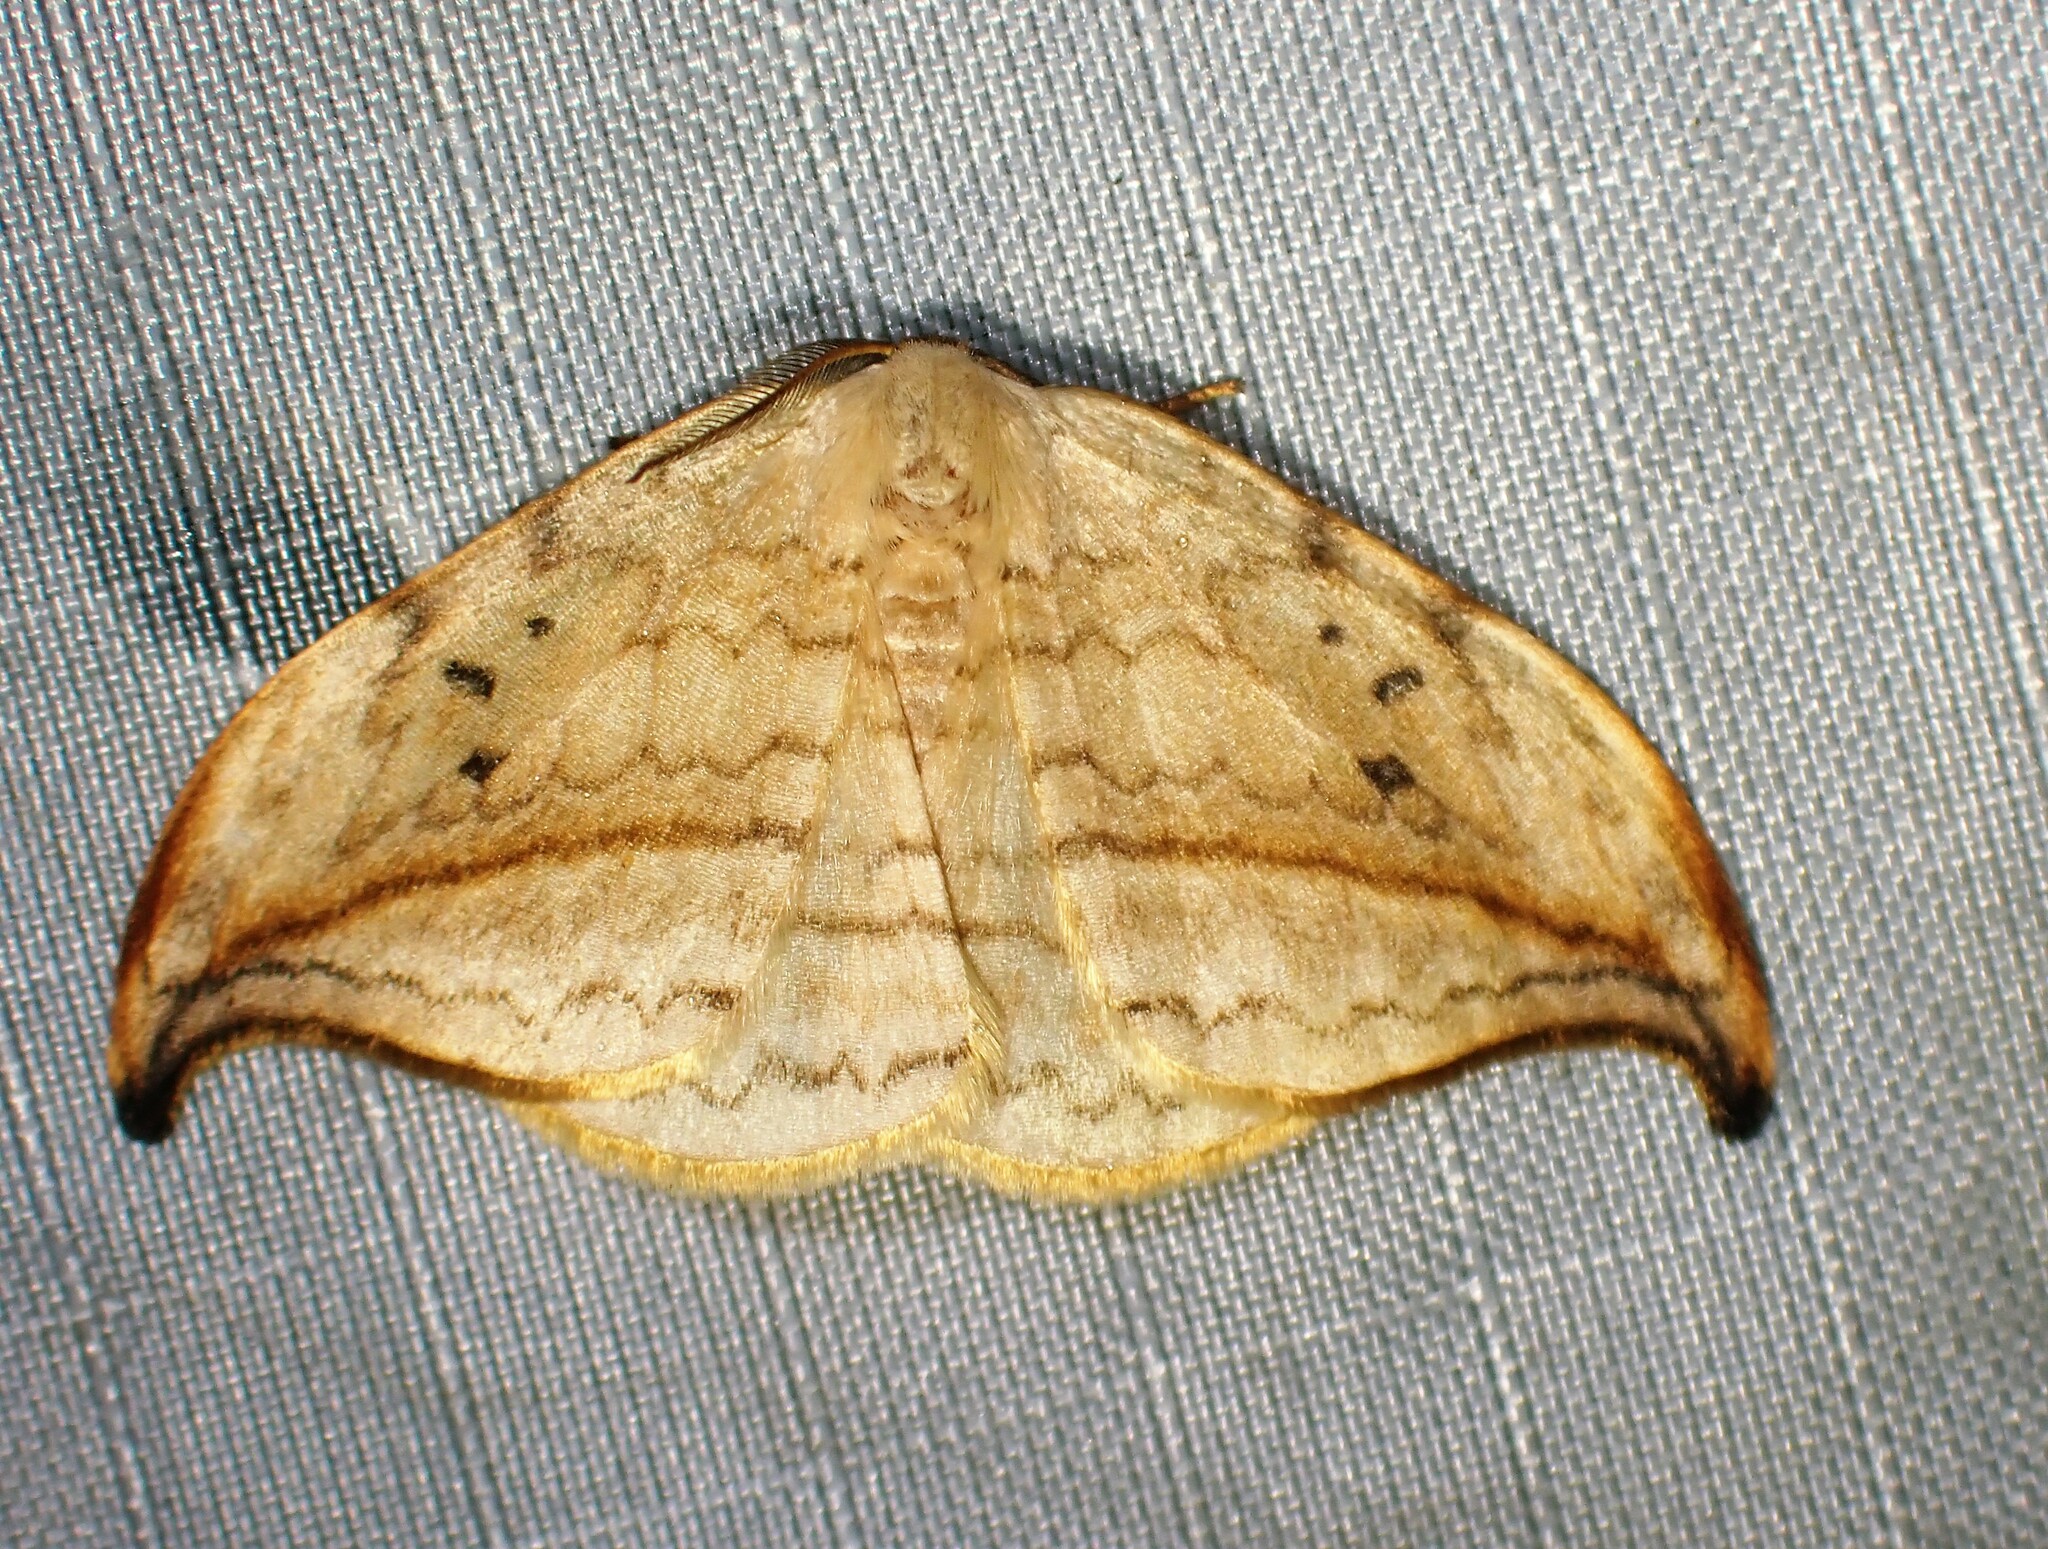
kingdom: Animalia
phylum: Arthropoda
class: Insecta
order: Lepidoptera
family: Drepanidae
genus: Drepana
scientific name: Drepana arcuata
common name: Arched hooktip moth
